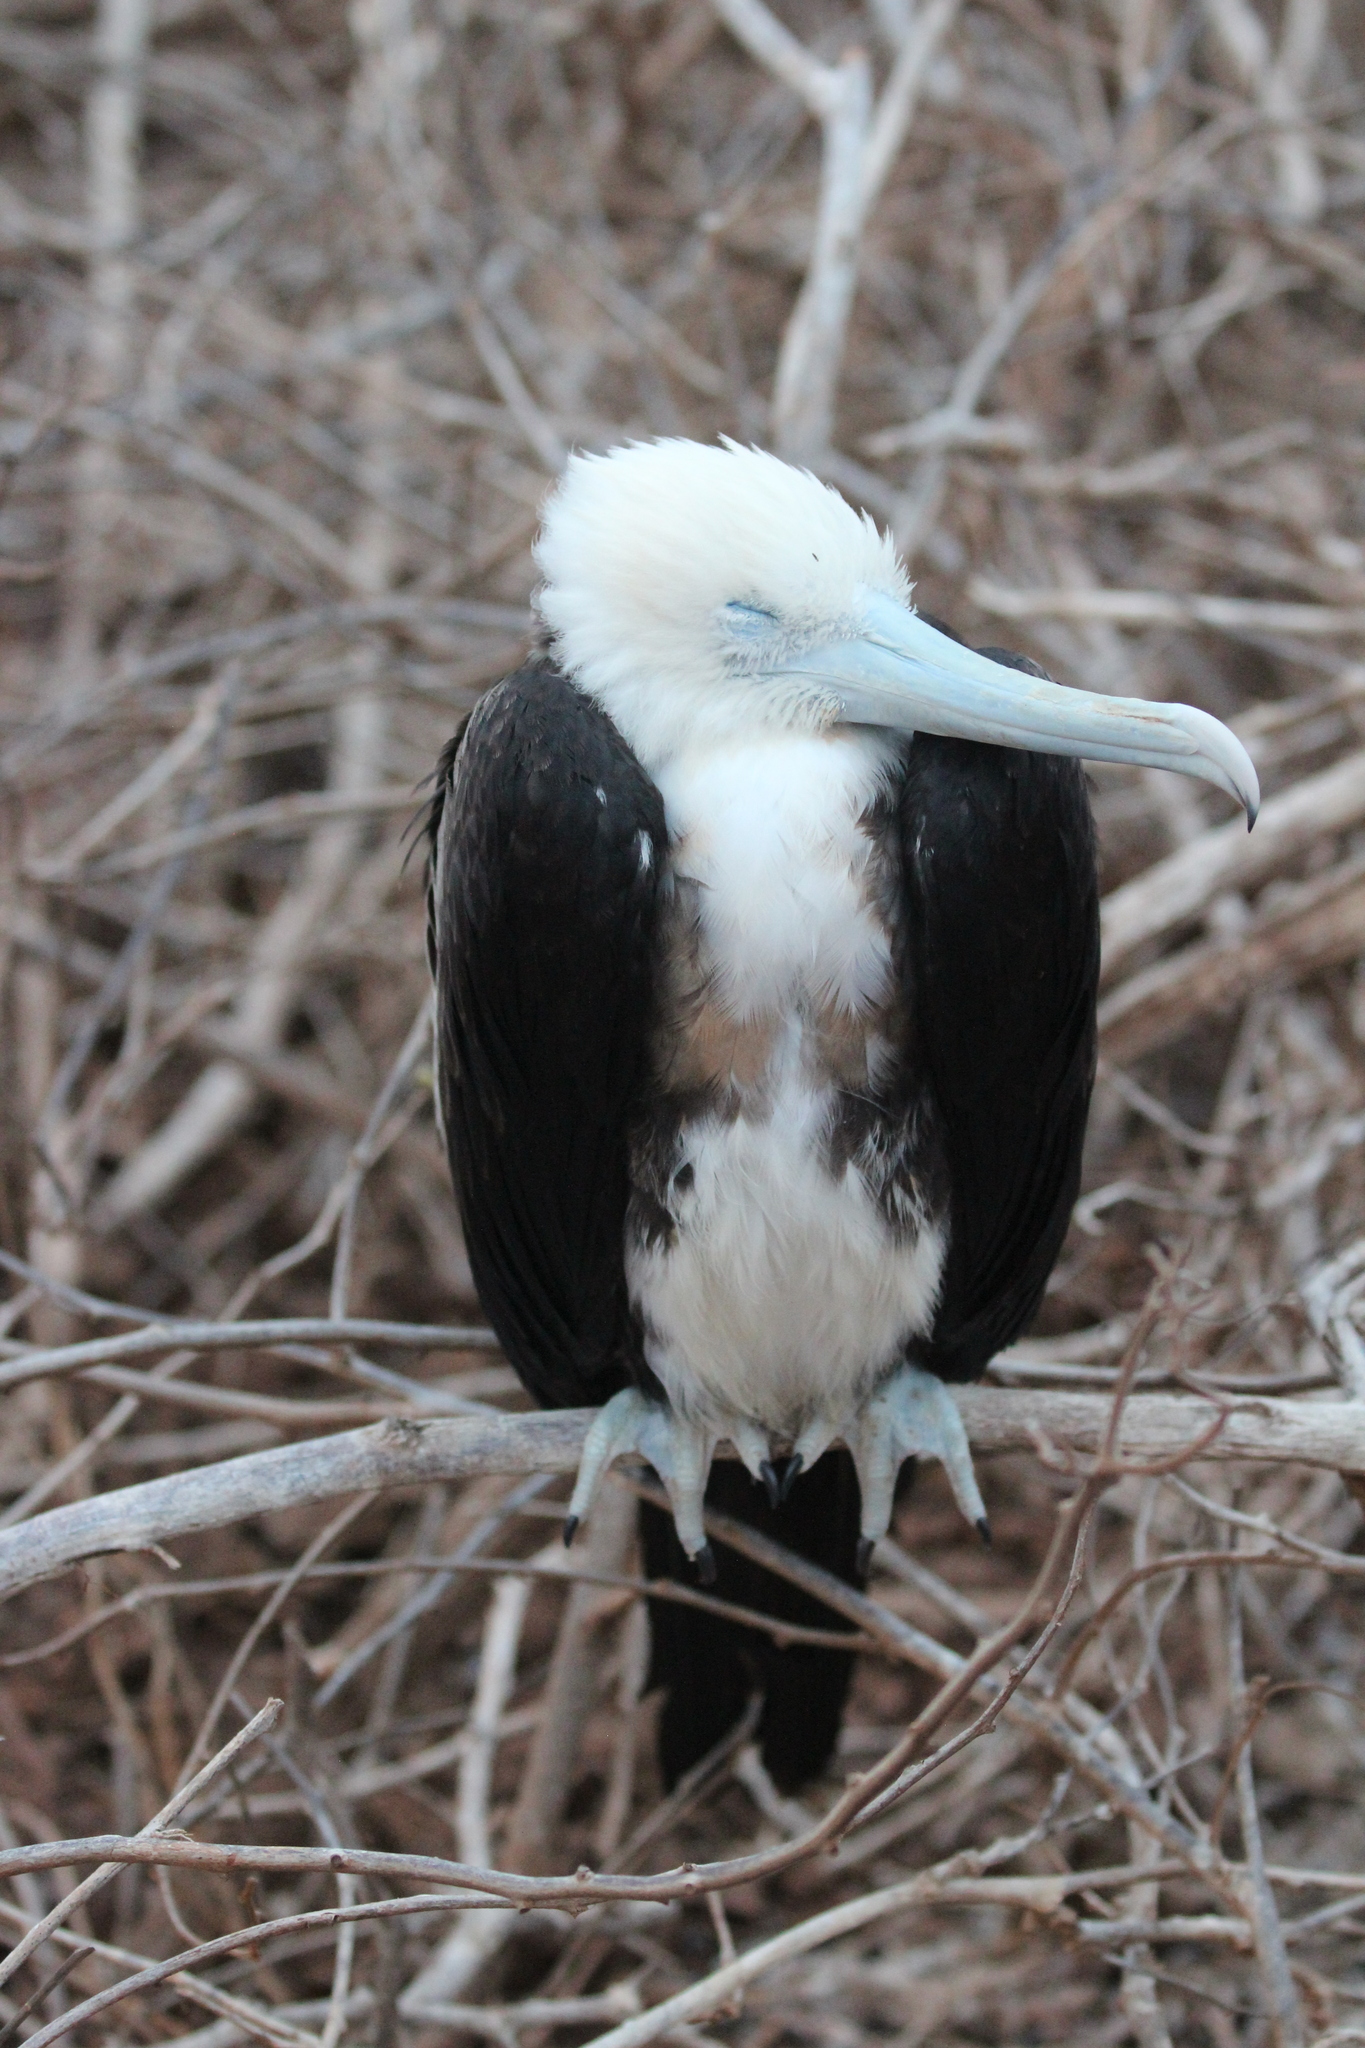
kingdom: Animalia
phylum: Chordata
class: Aves
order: Suliformes
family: Fregatidae
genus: Fregata
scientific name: Fregata minor
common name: Great frigatebird
